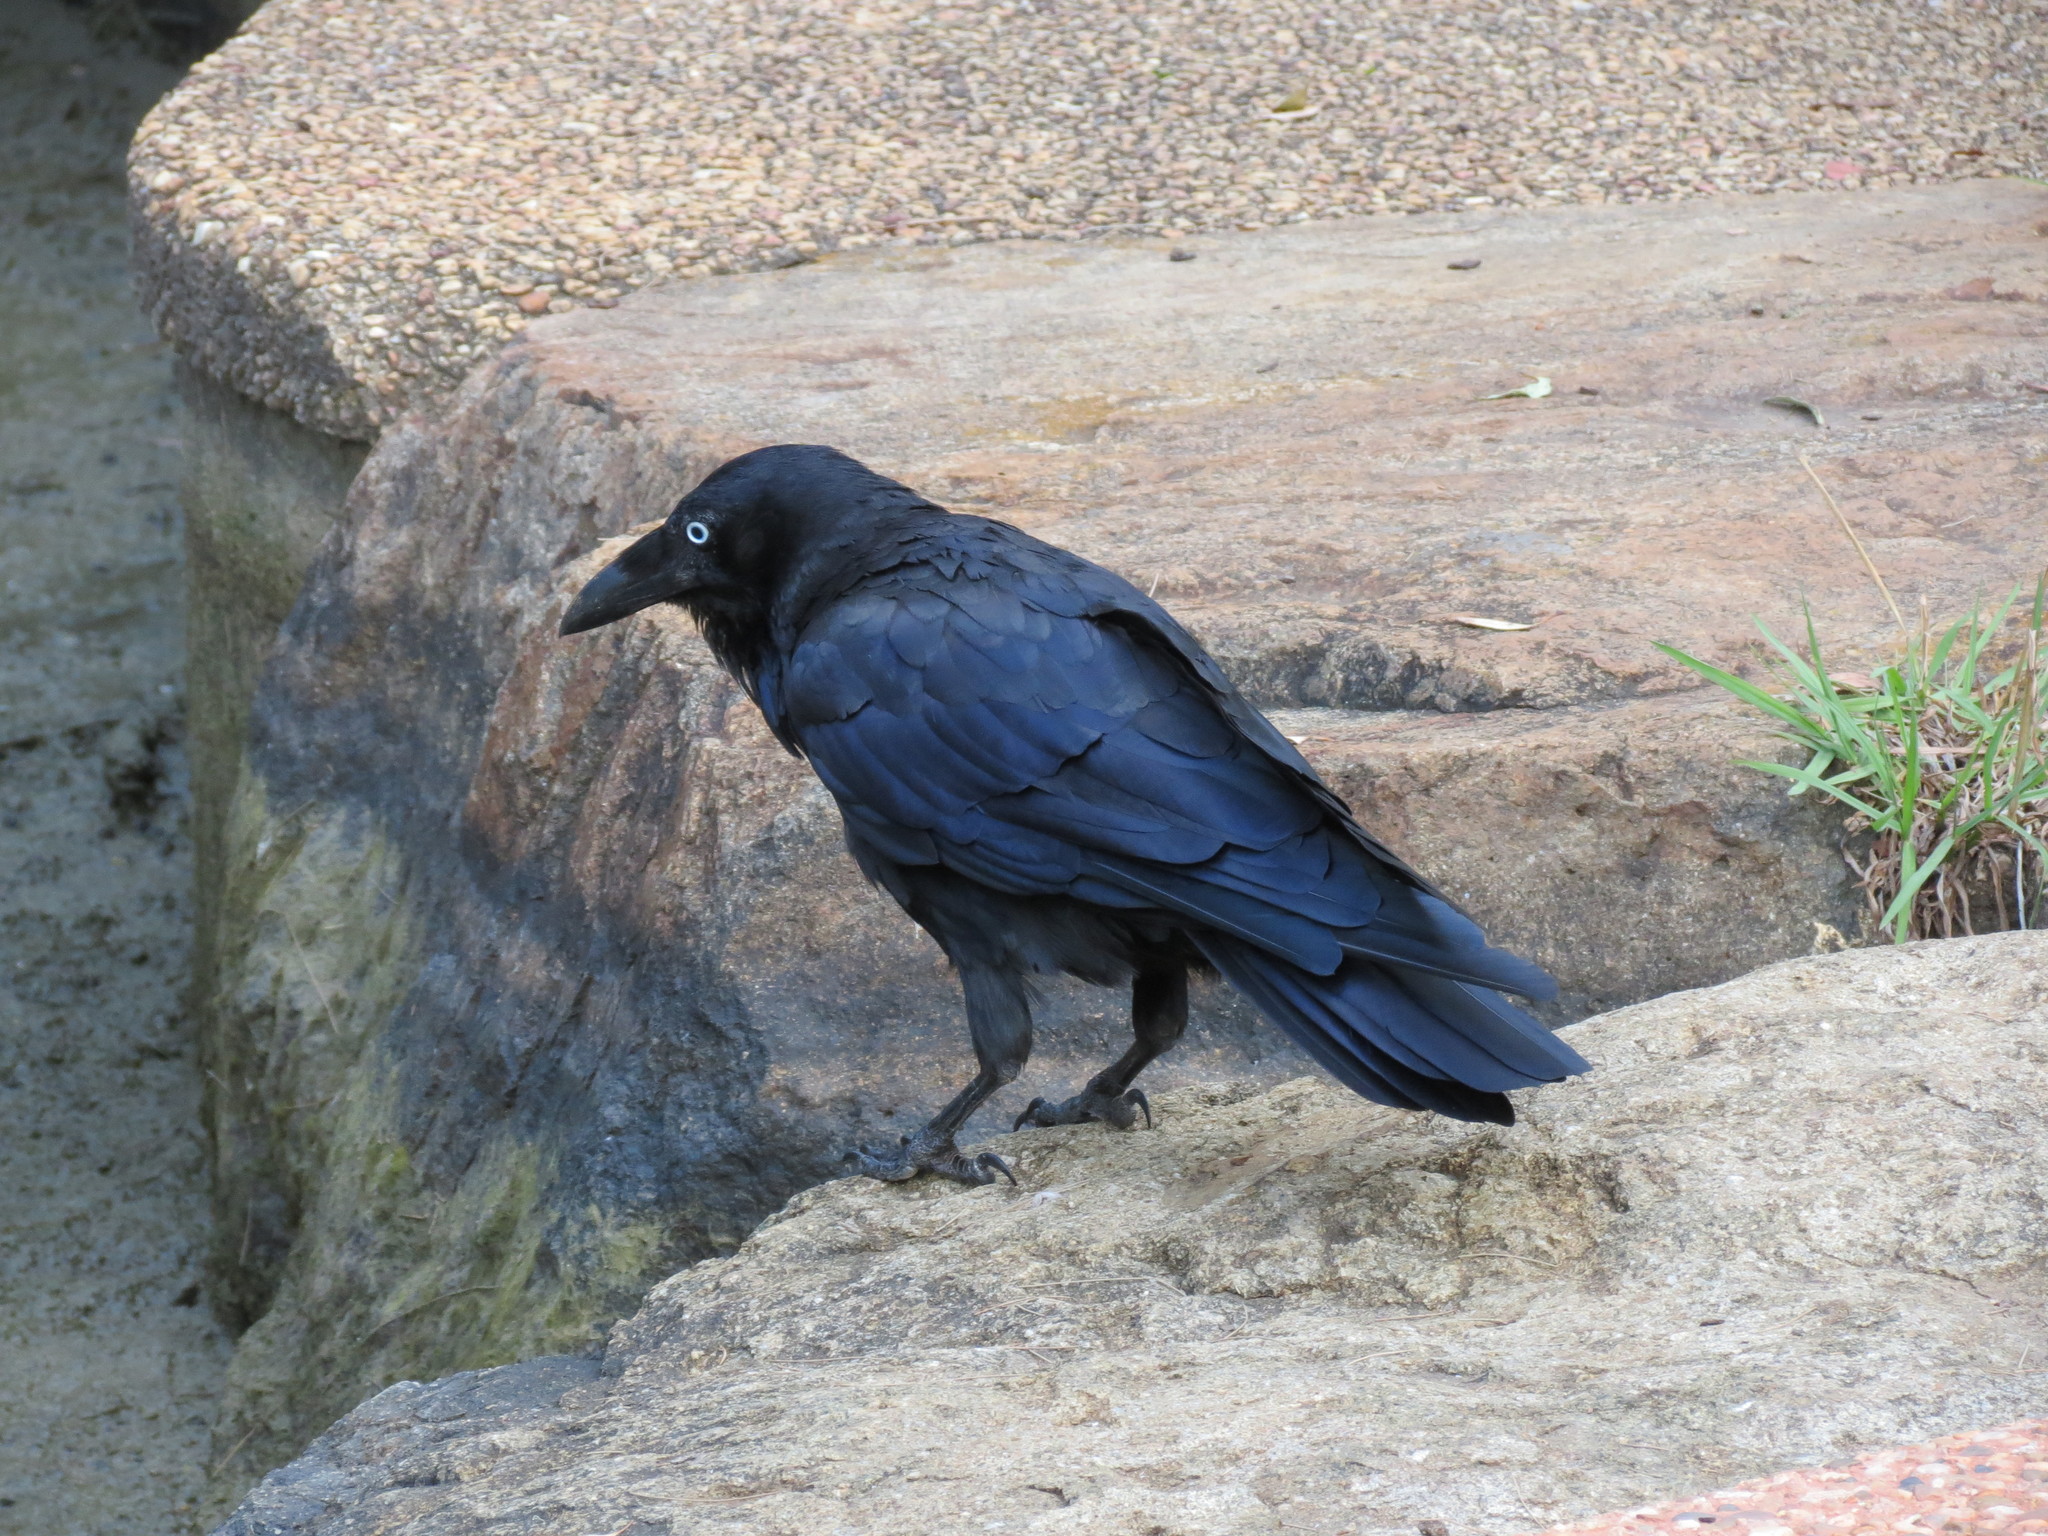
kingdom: Animalia
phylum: Chordata
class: Aves
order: Passeriformes
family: Corvidae
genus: Corvus
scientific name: Corvus coronoides
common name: Australian raven
